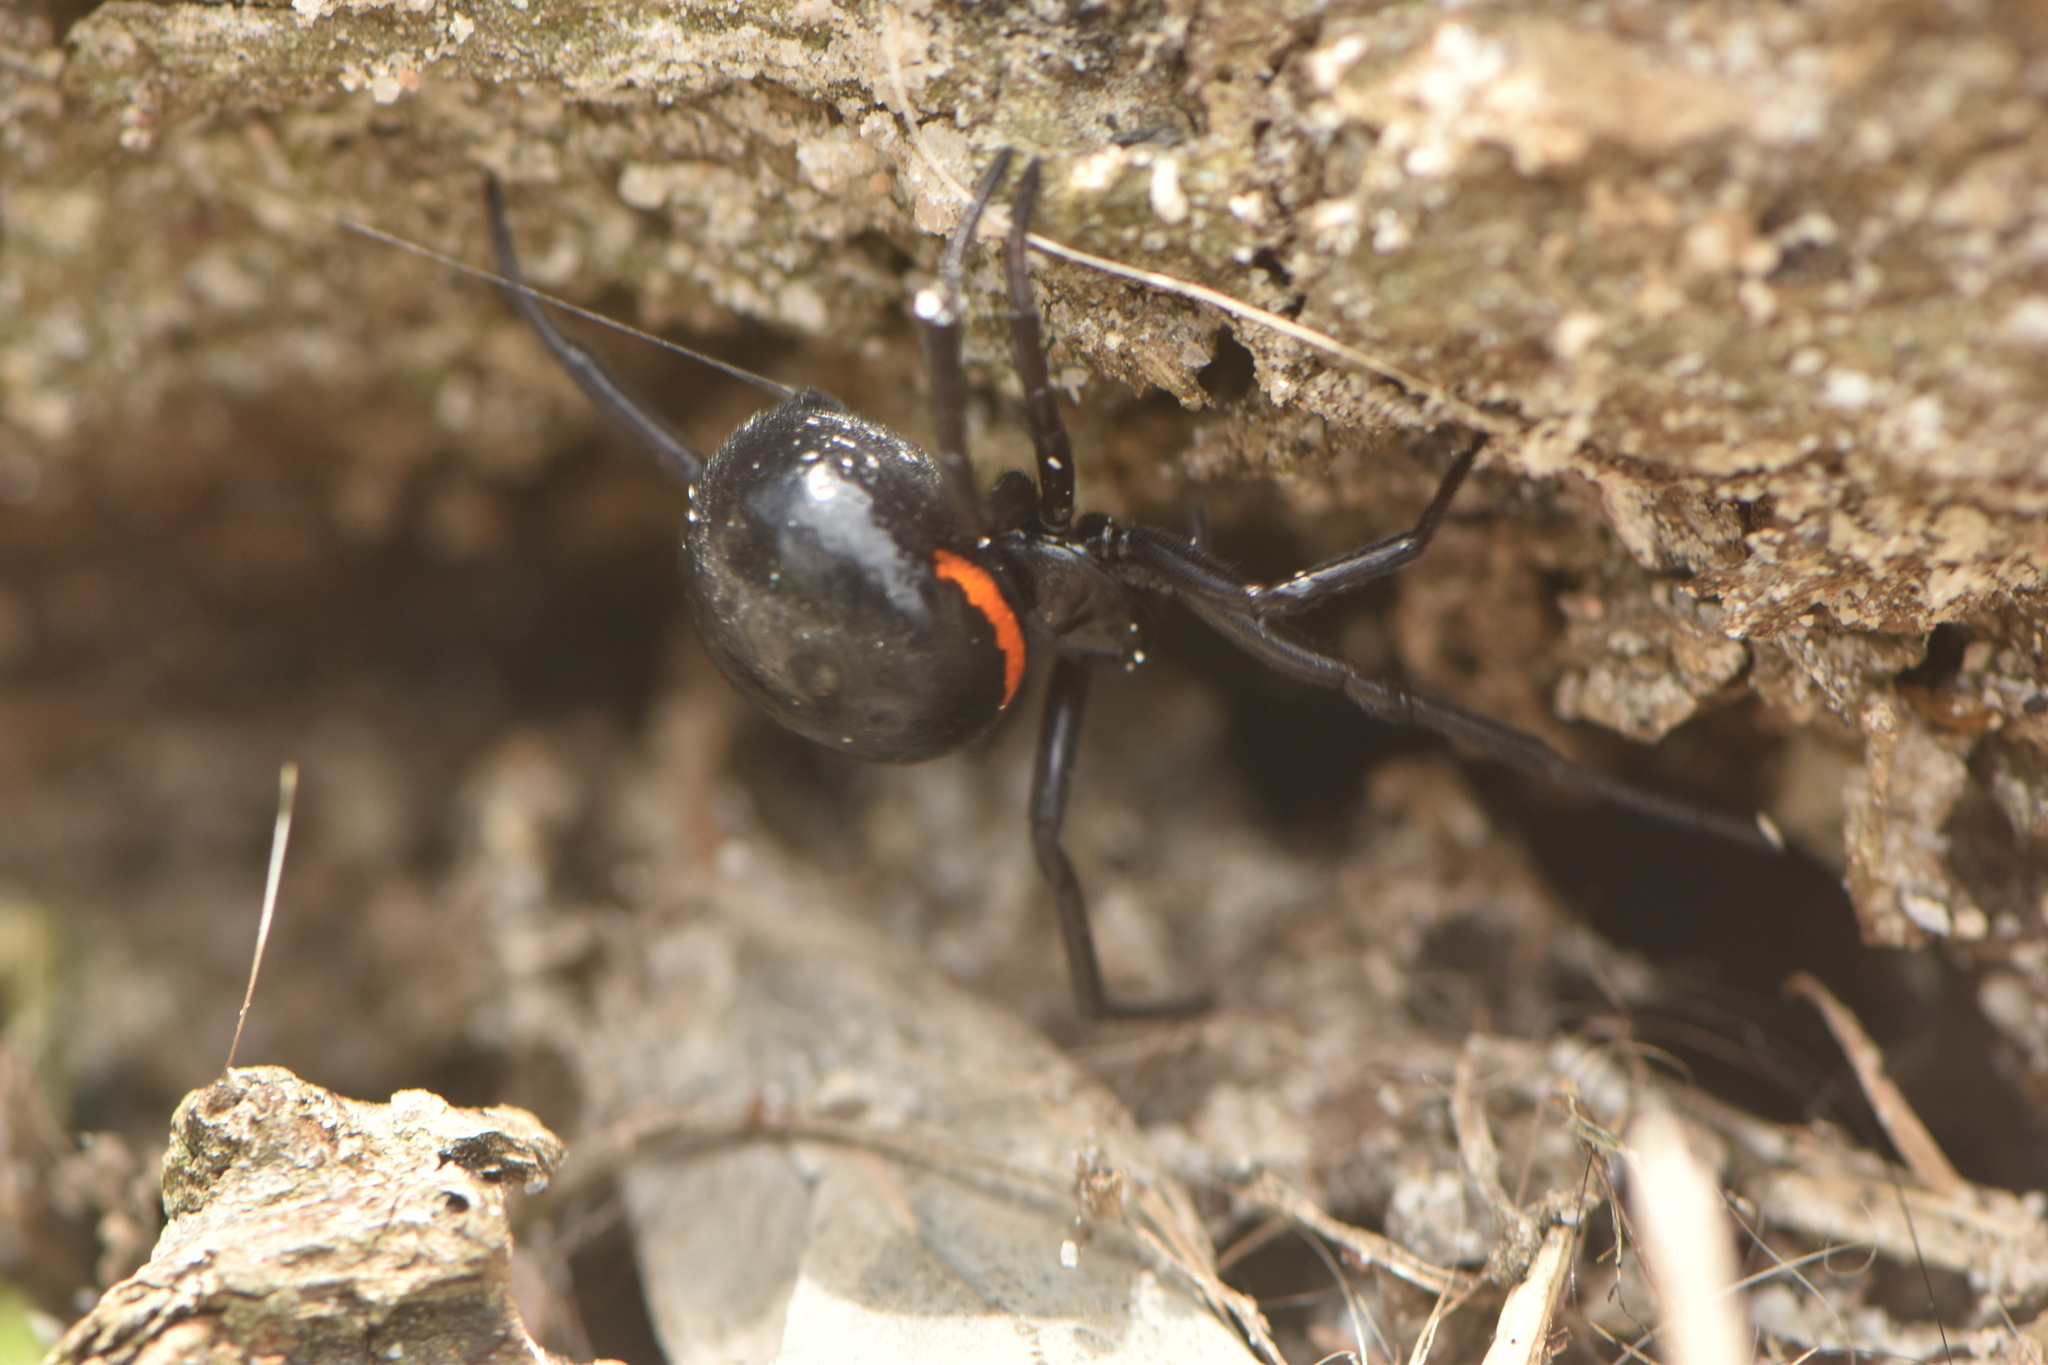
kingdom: Animalia
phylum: Arthropoda
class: Arachnida
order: Araneae
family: Theridiidae
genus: Steatoda
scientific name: Steatoda paykulliana
